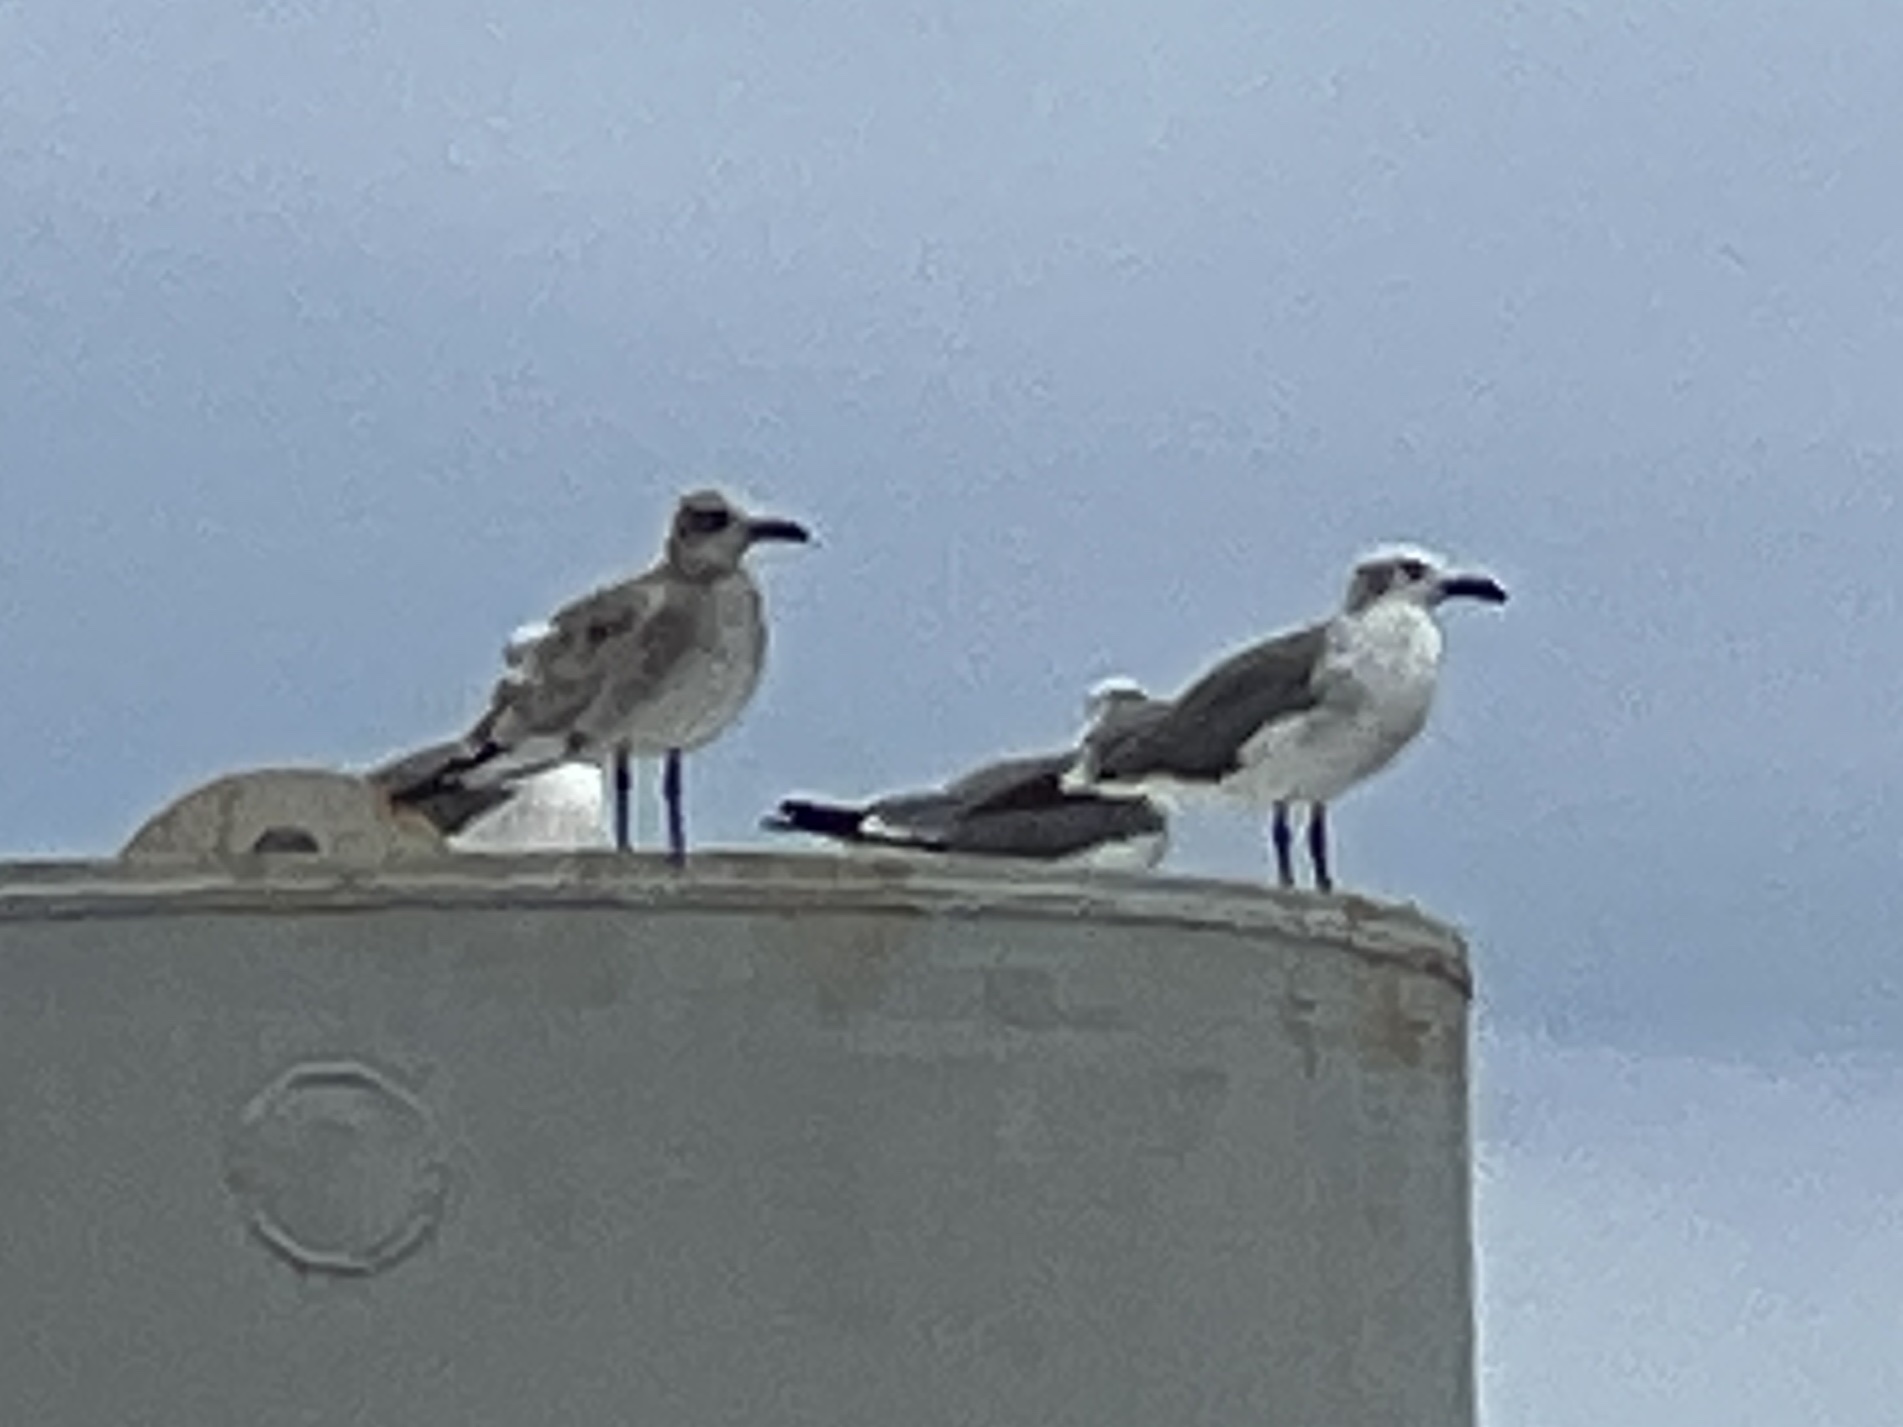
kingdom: Animalia
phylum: Chordata
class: Aves
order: Charadriiformes
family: Laridae
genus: Leucophaeus
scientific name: Leucophaeus atricilla
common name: Laughing gull
